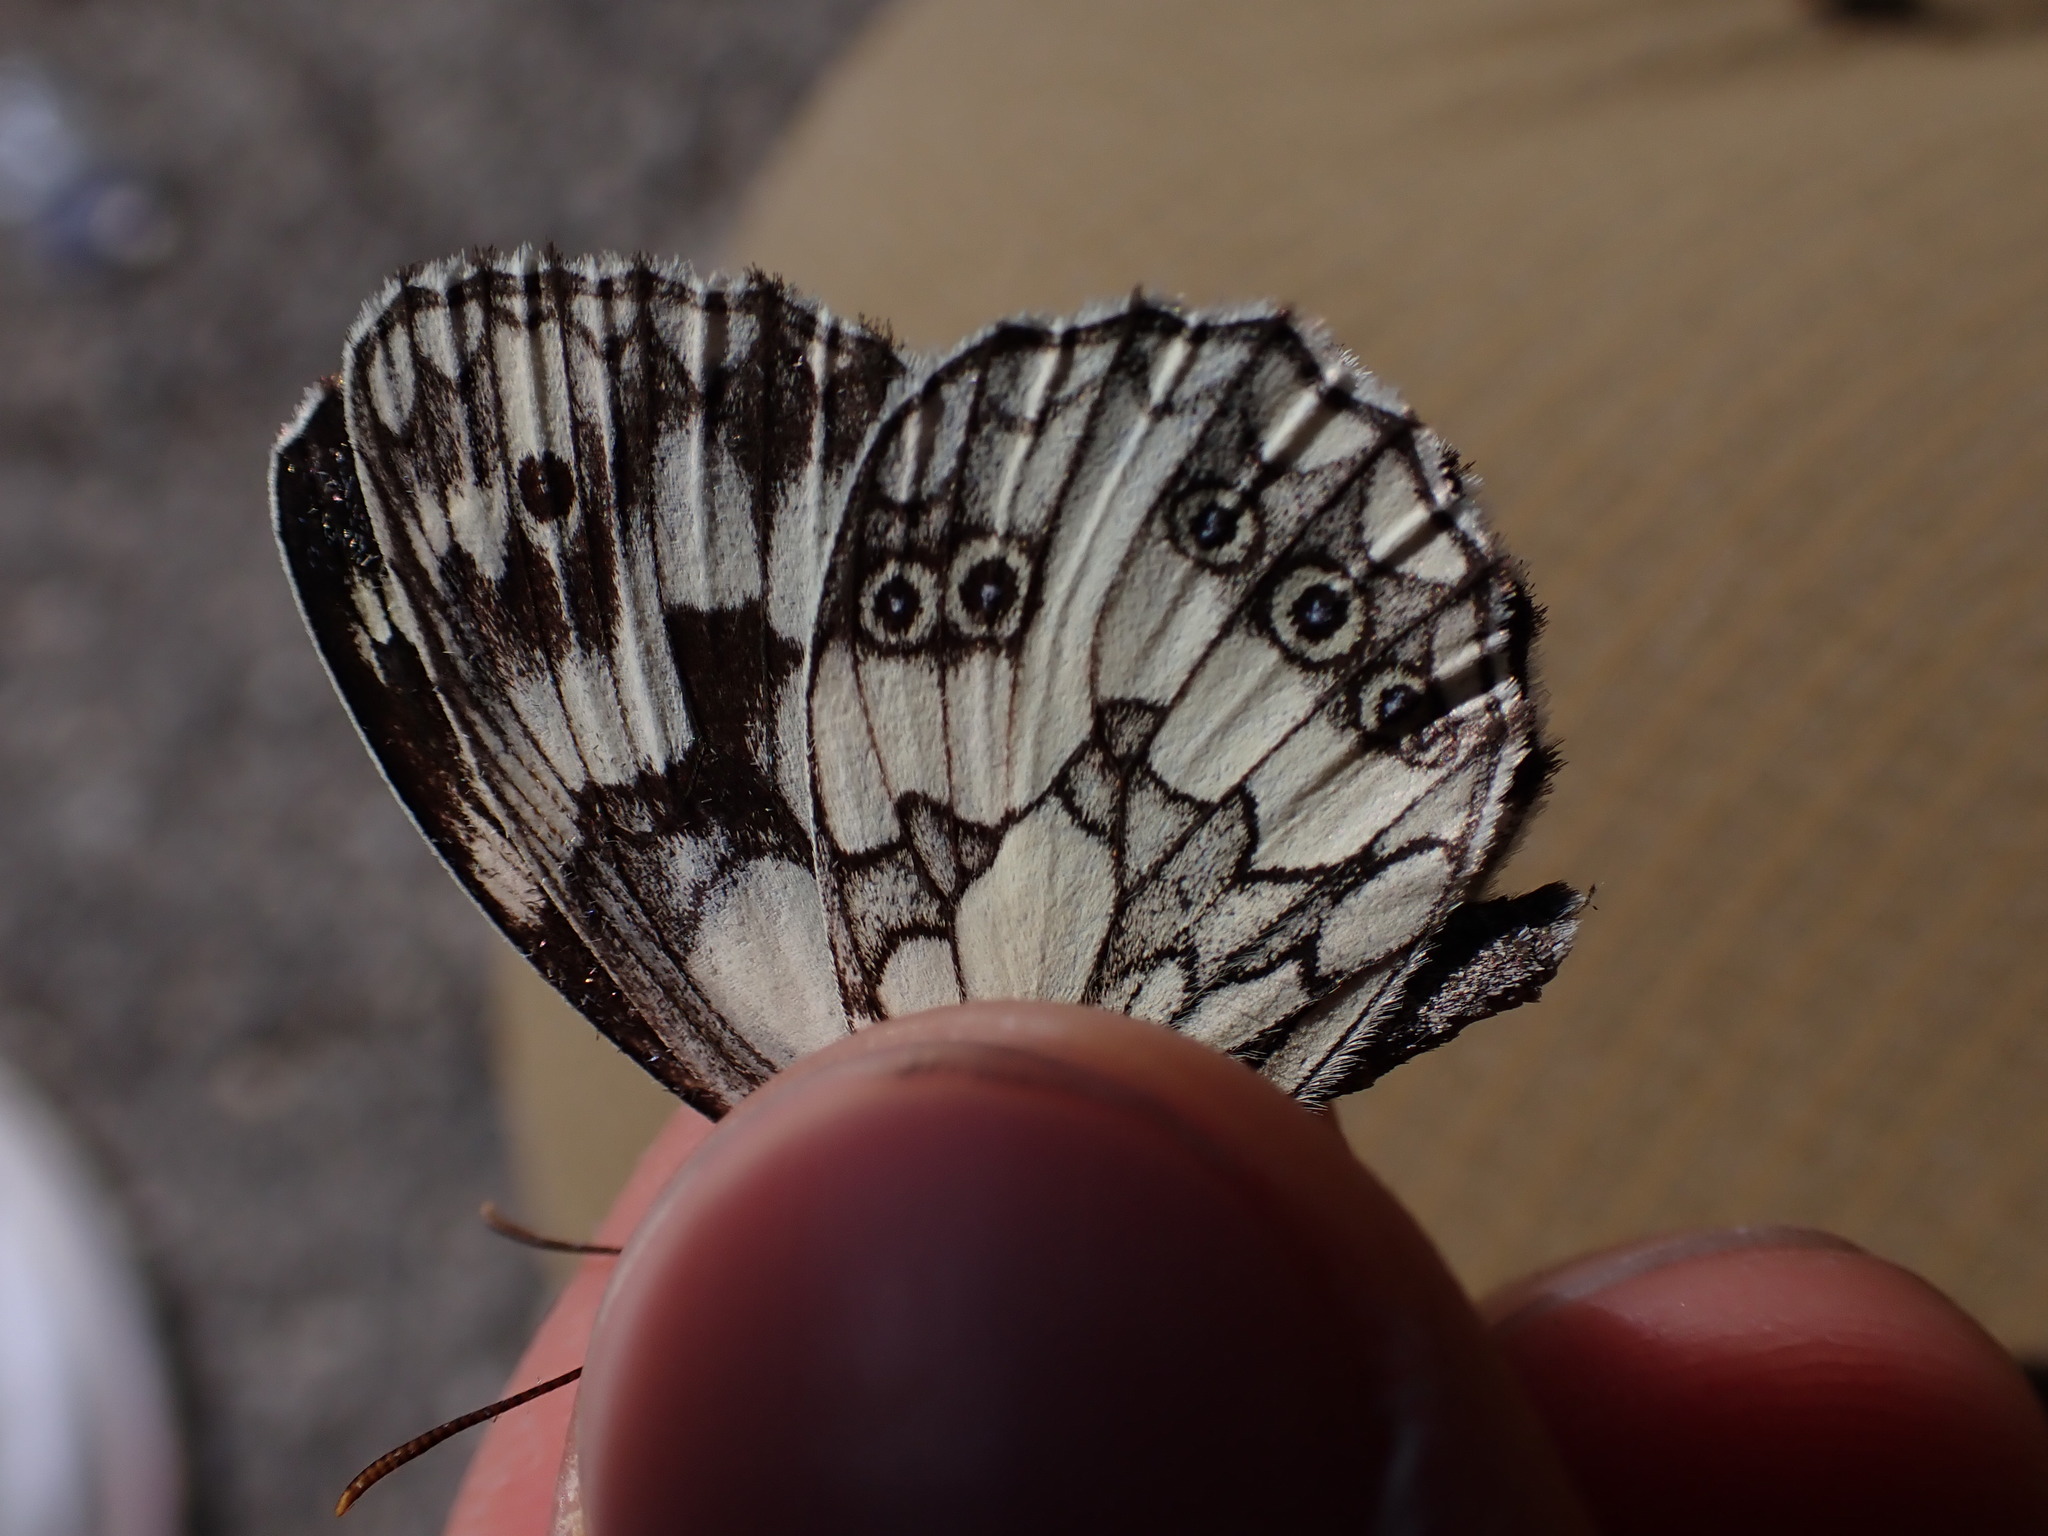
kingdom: Animalia
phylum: Arthropoda
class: Insecta
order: Lepidoptera
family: Nymphalidae
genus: Melanargia
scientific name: Melanargia galathea
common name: Marbled white
